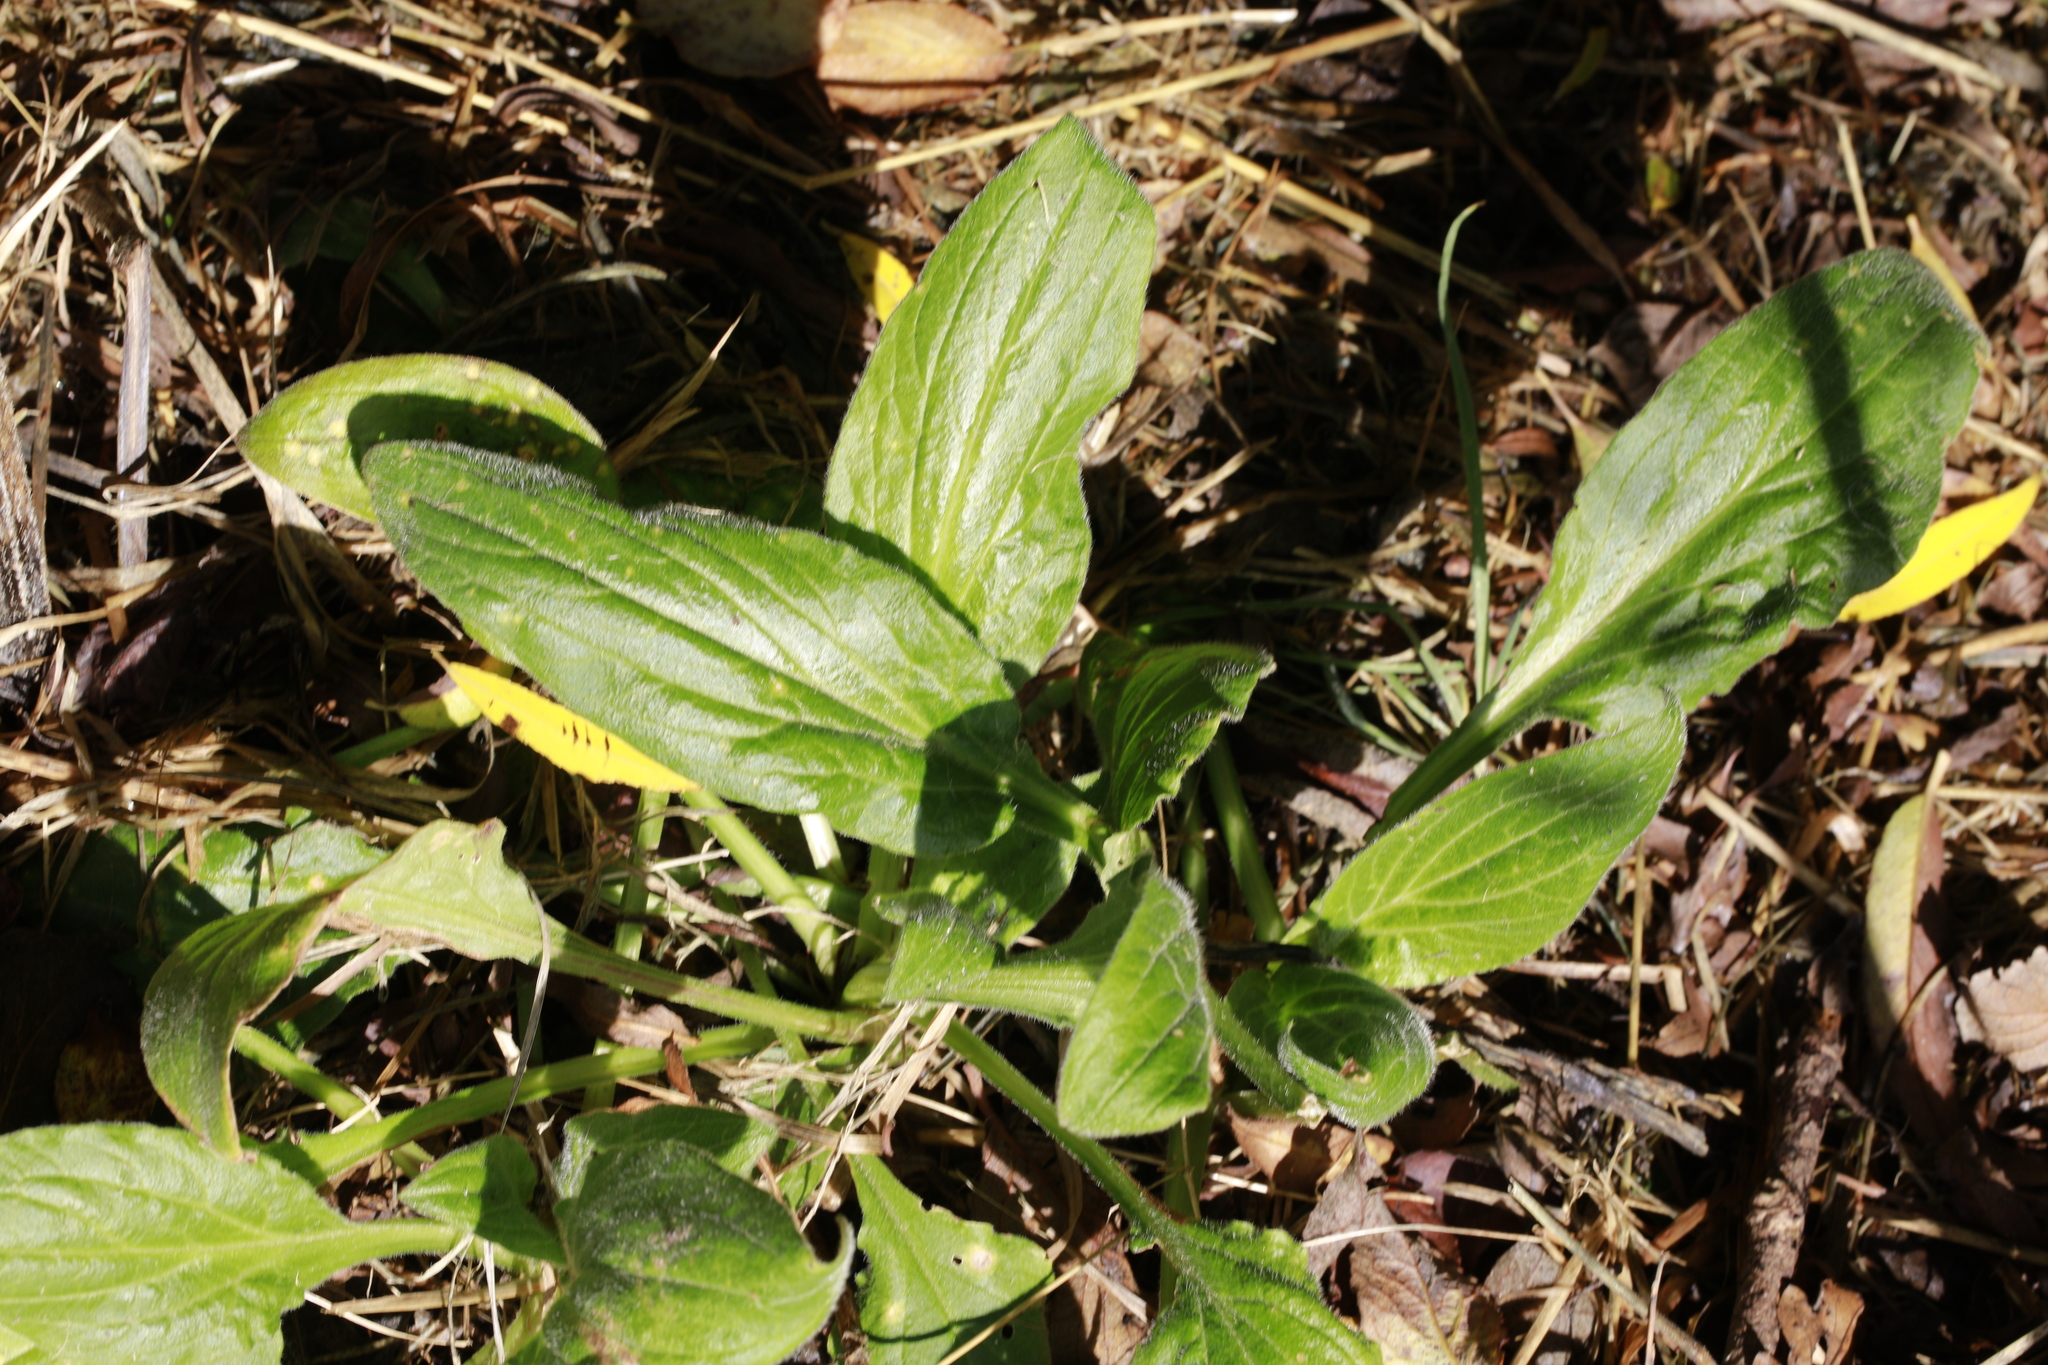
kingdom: Plantae
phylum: Tracheophyta
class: Magnoliopsida
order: Caryophyllales
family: Caryophyllaceae
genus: Silene
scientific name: Silene dioica
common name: Red campion
